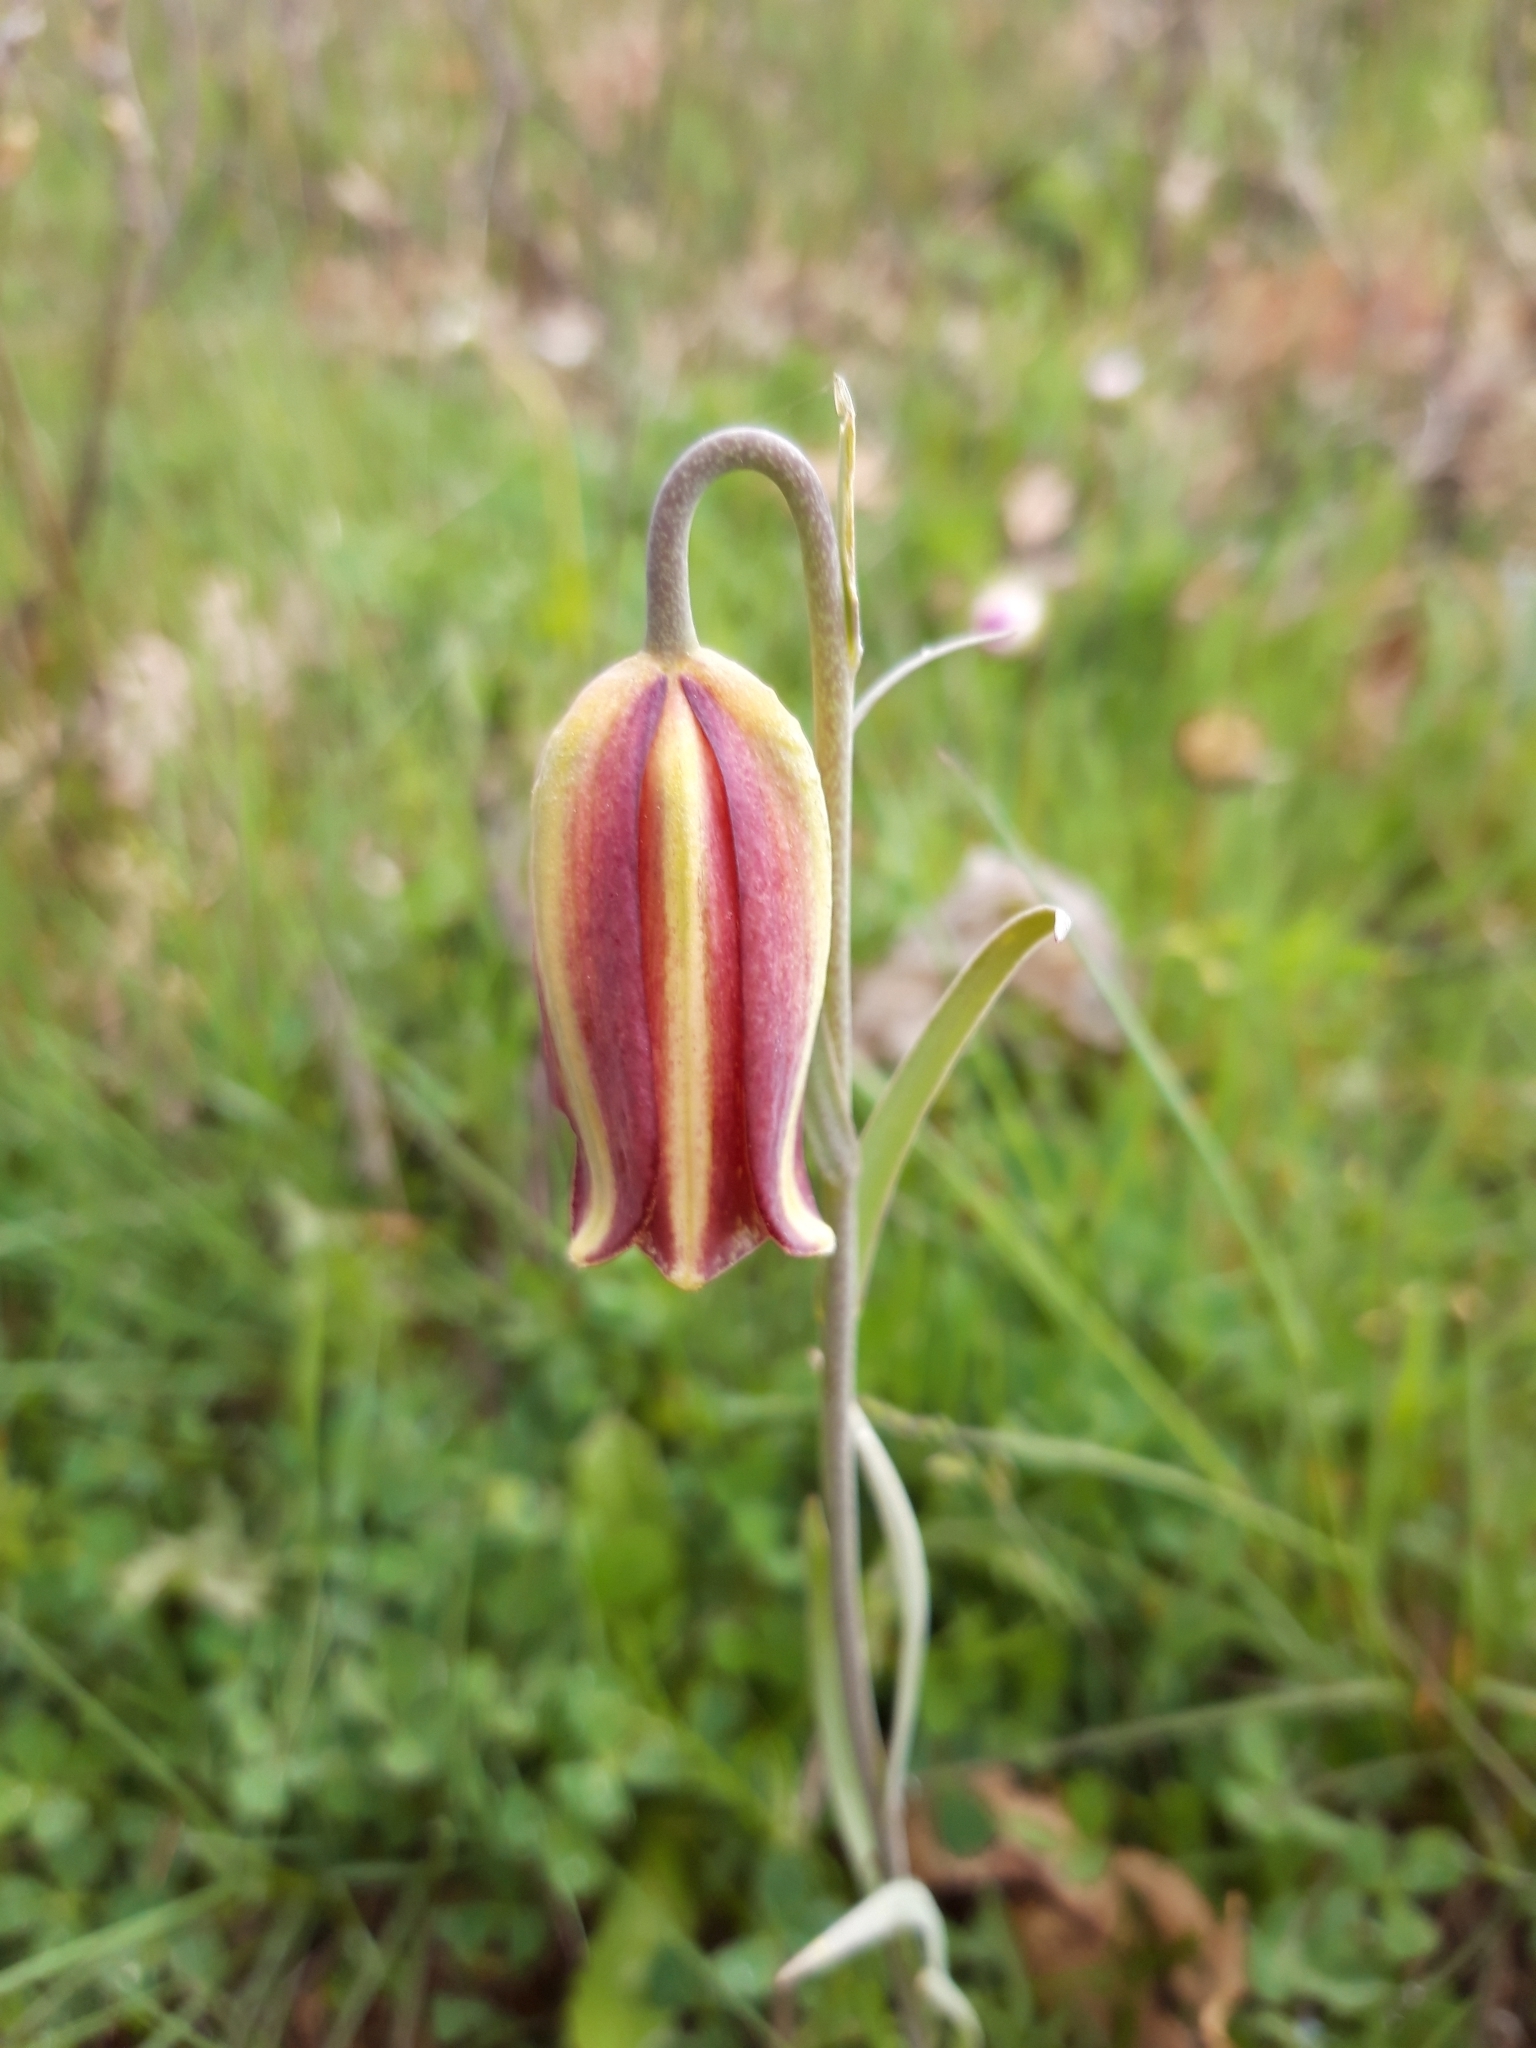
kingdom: Plantae
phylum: Tracheophyta
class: Liliopsida
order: Liliales
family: Liliaceae
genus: Fritillaria
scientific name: Fritillaria lusitanica
